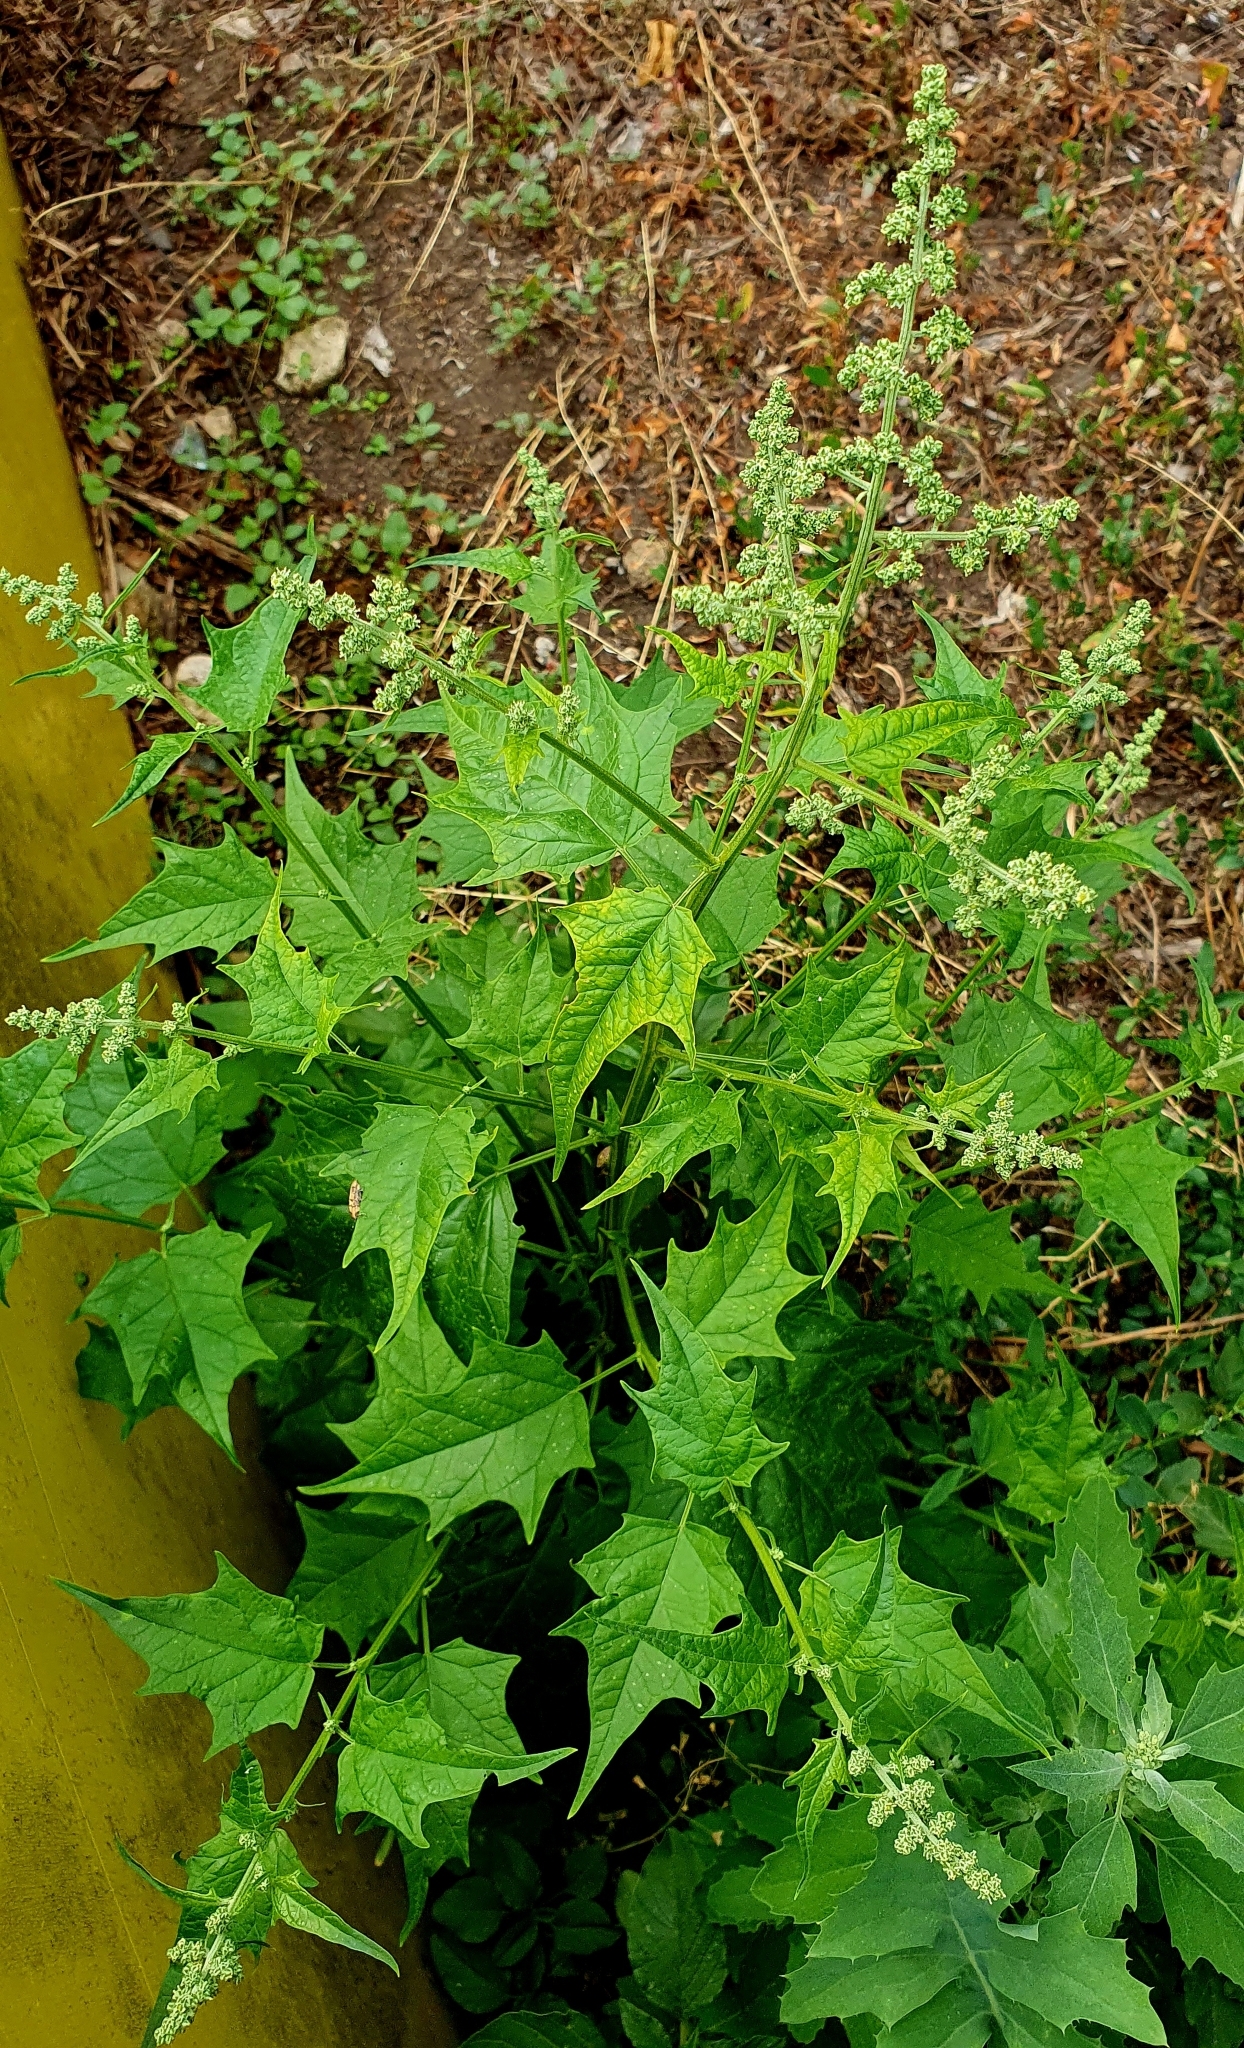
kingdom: Plantae
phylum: Tracheophyta
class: Magnoliopsida
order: Caryophyllales
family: Amaranthaceae
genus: Chenopodiastrum
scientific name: Chenopodiastrum hybridum
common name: Mapleleaf goosefoot
